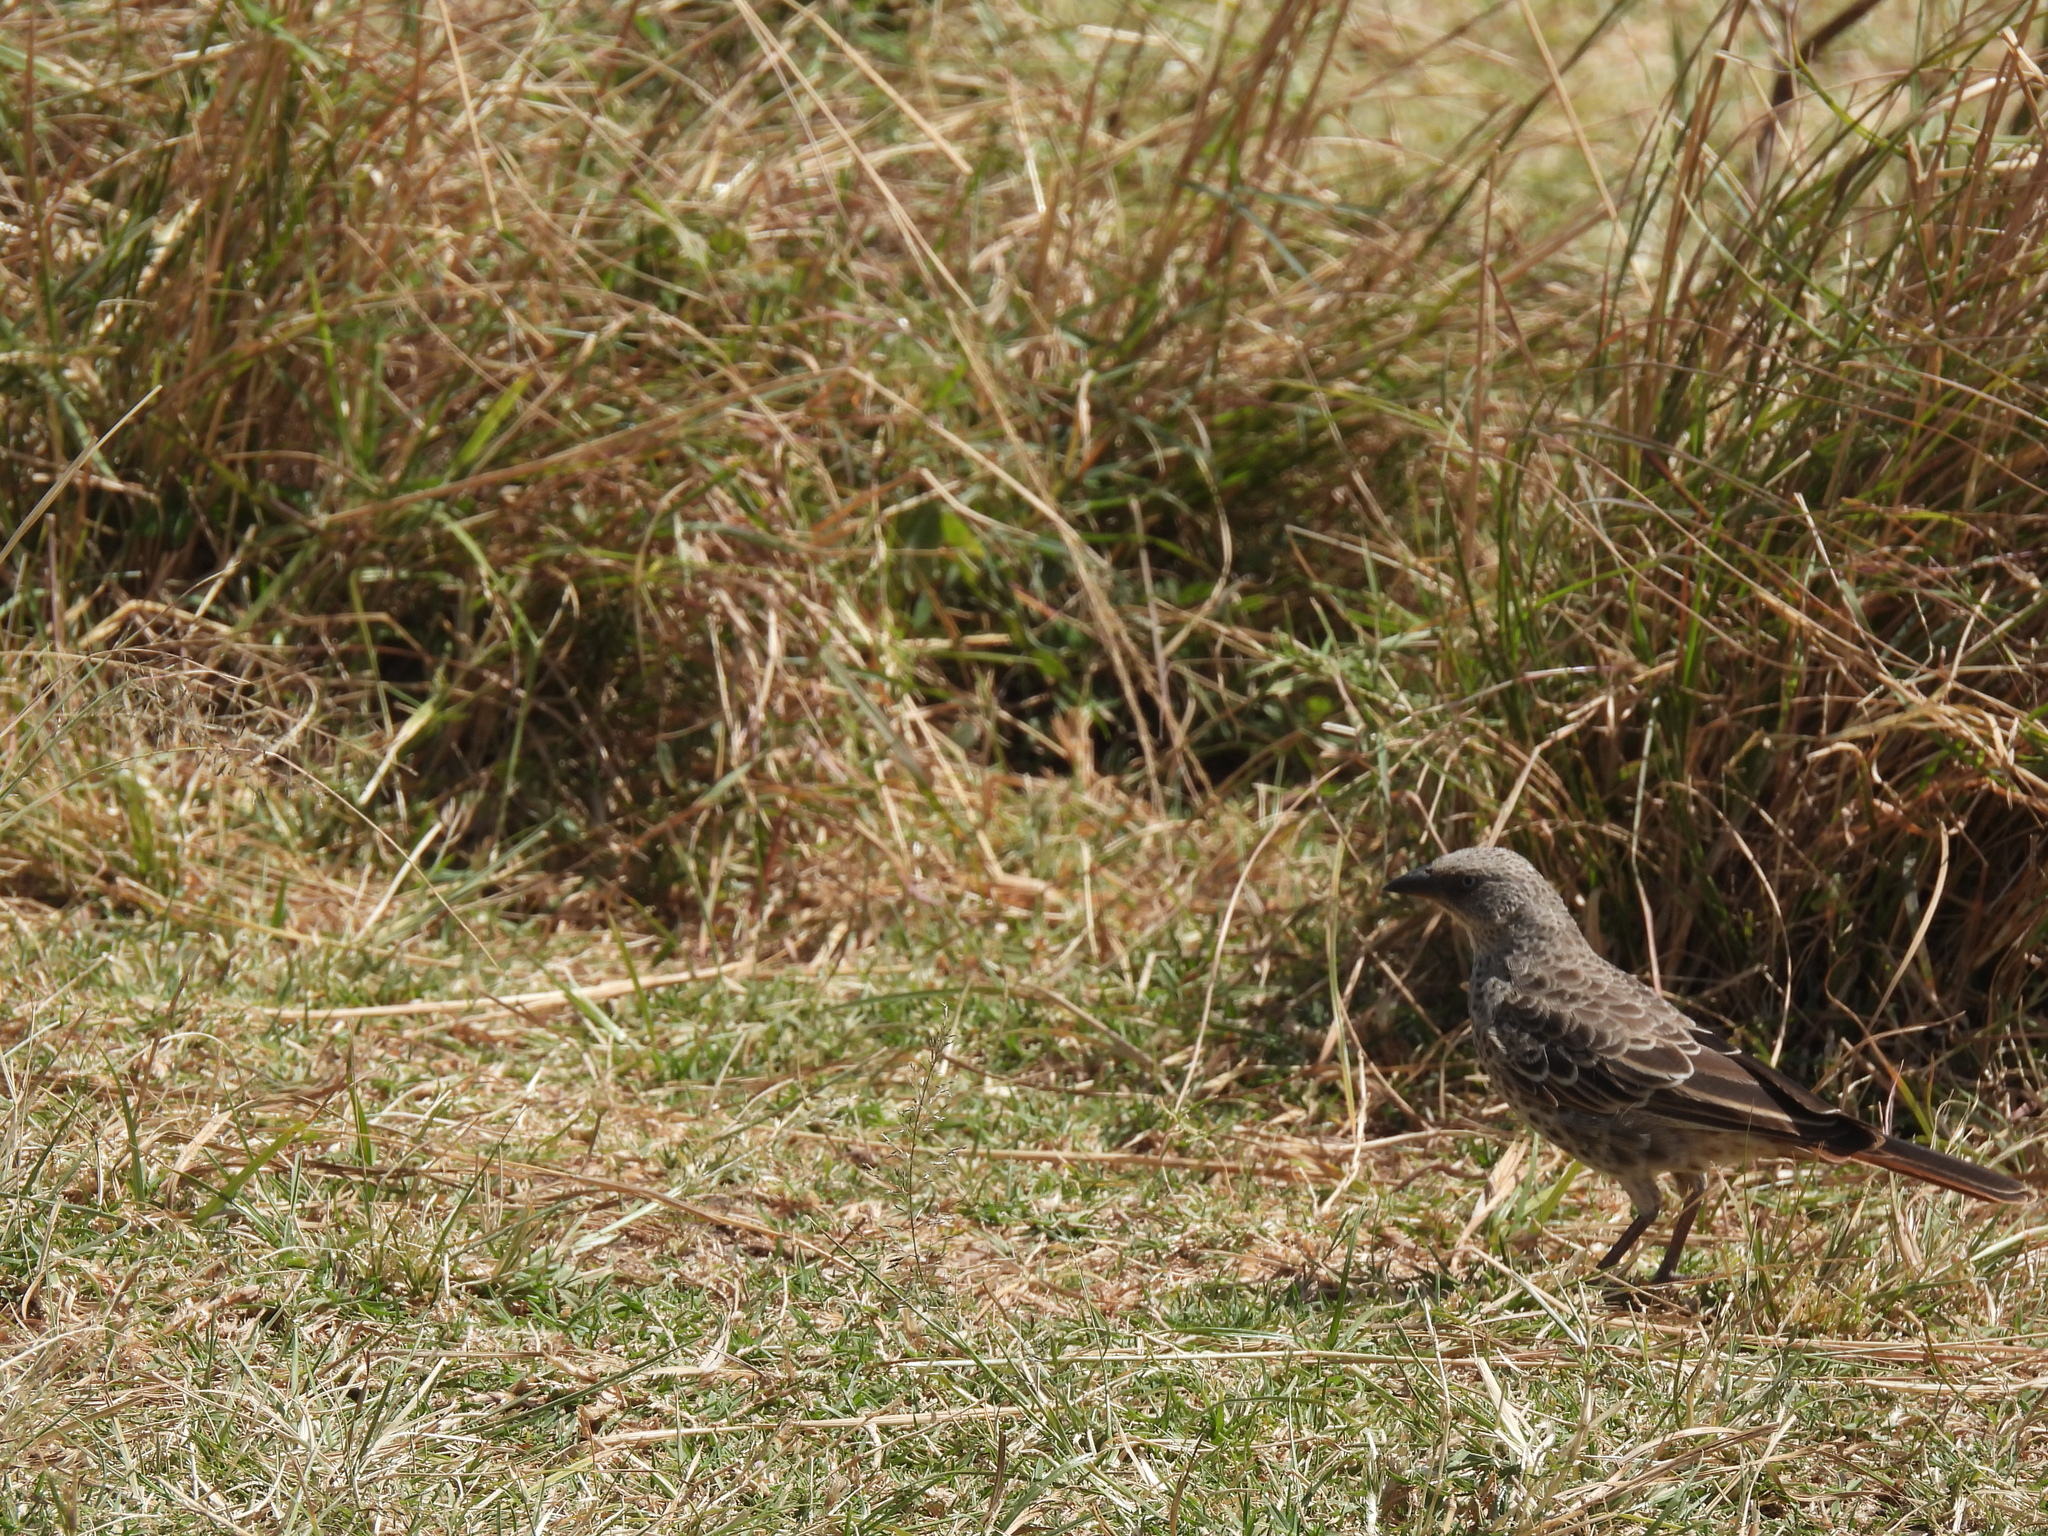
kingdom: Animalia
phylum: Chordata
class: Aves
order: Passeriformes
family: Passeridae
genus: Histurgops
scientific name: Histurgops ruficauda
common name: Rufous-tailed weaver
